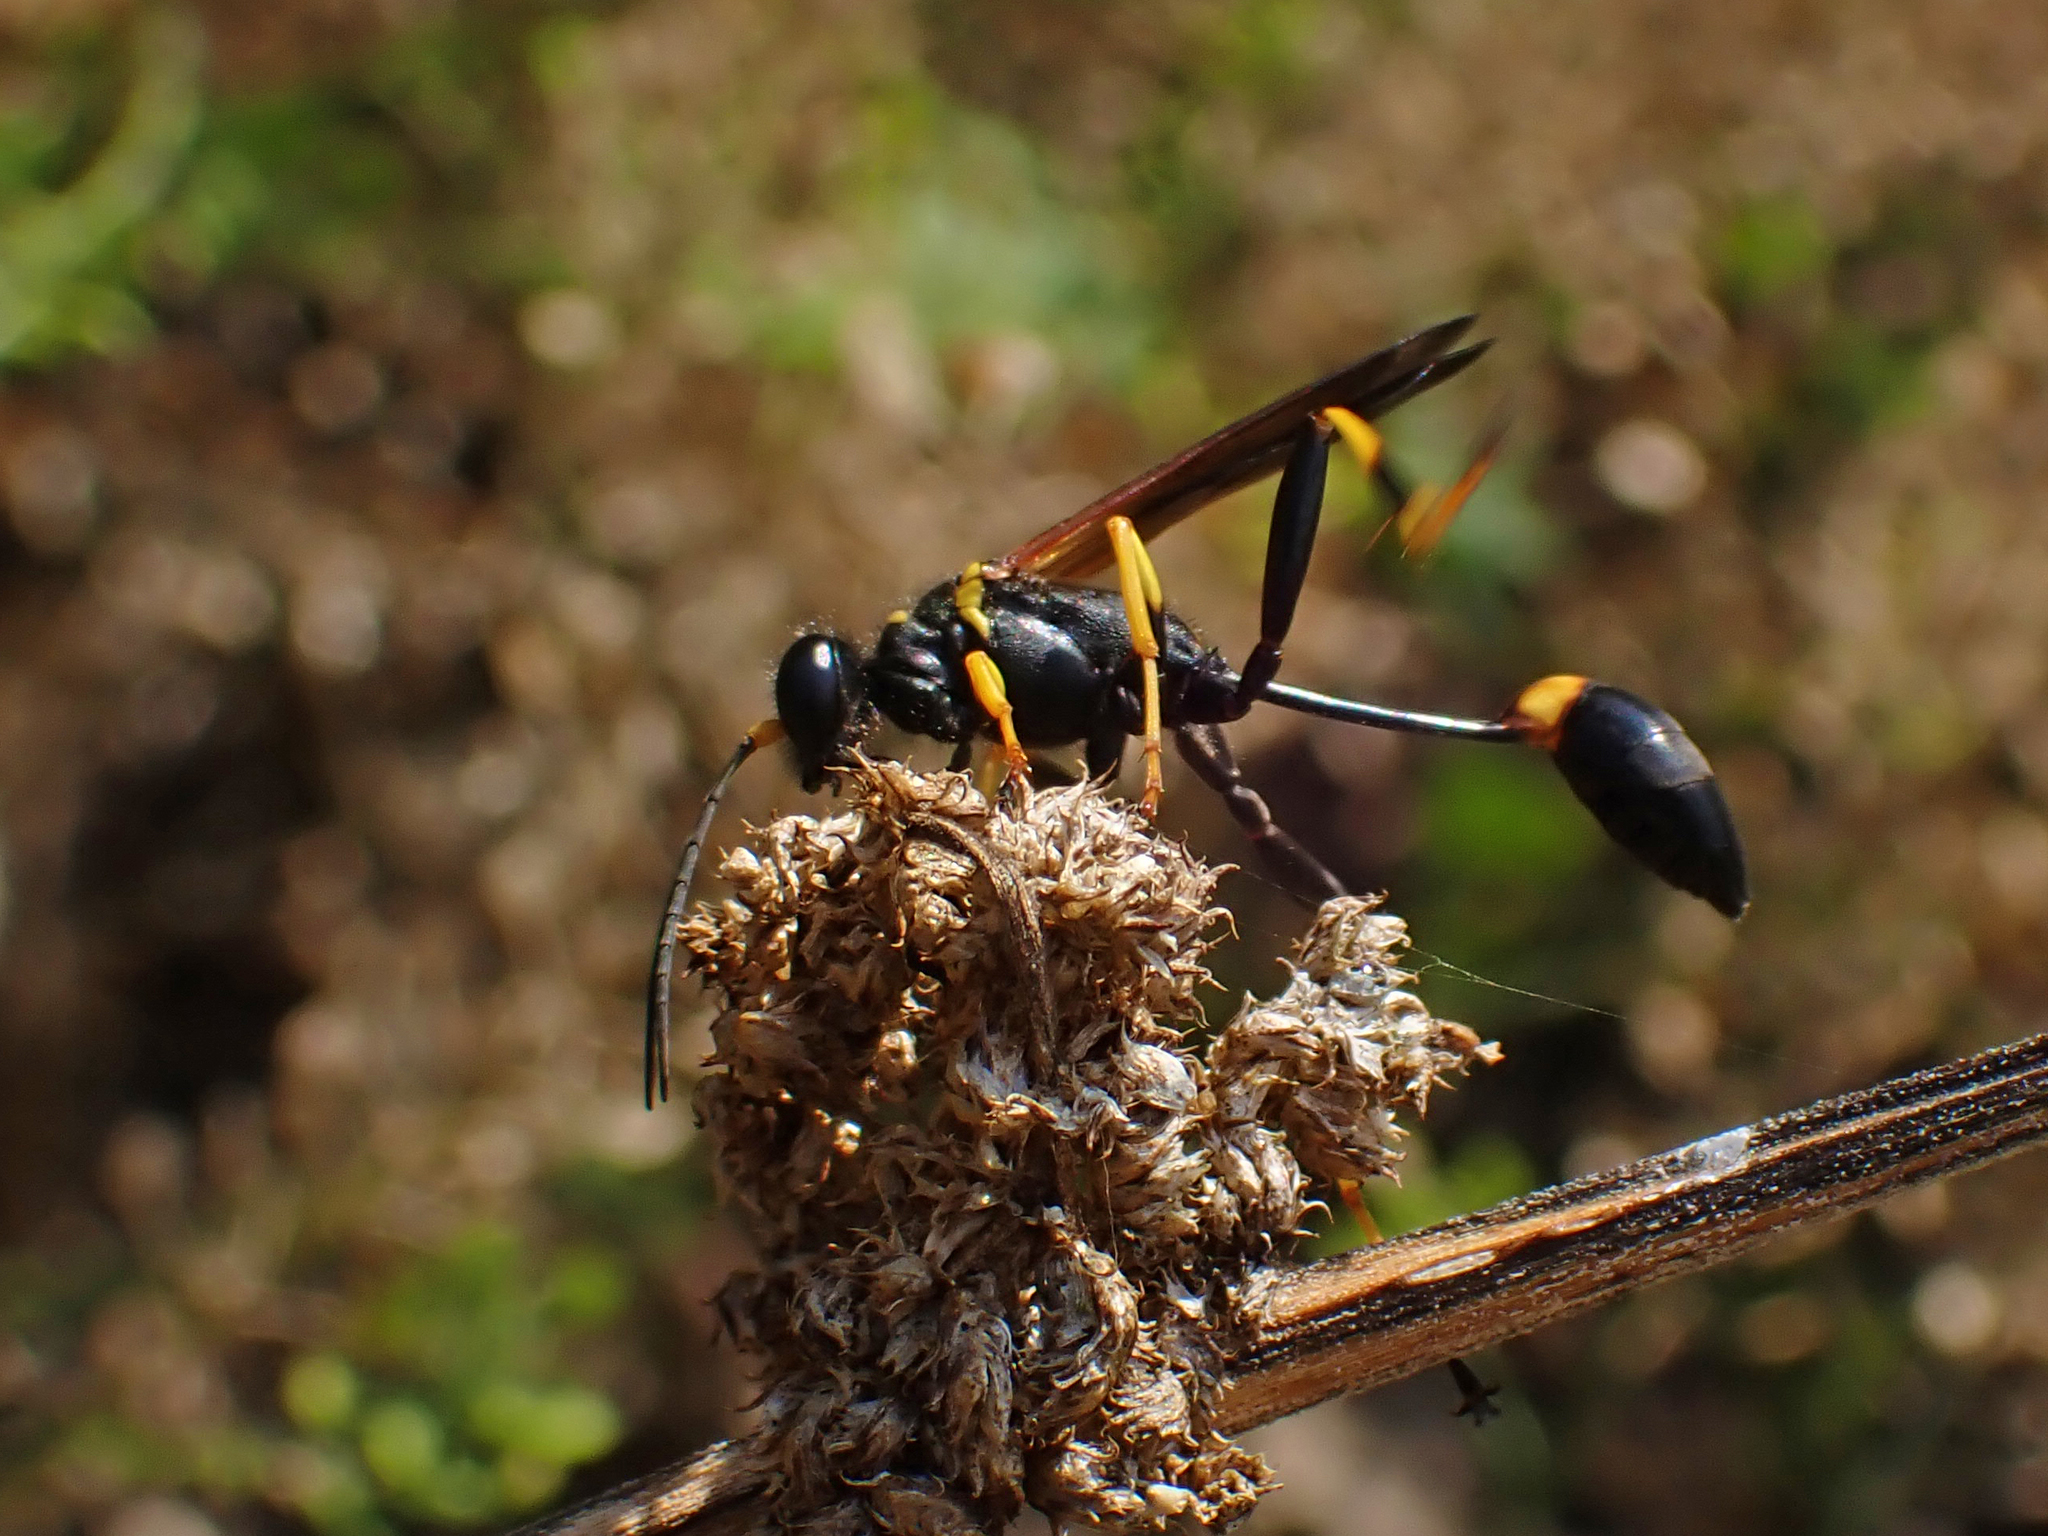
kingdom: Animalia
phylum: Arthropoda
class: Insecta
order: Hymenoptera
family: Sphecidae
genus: Sceliphron
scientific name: Sceliphron caementarium
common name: Mud dauber
